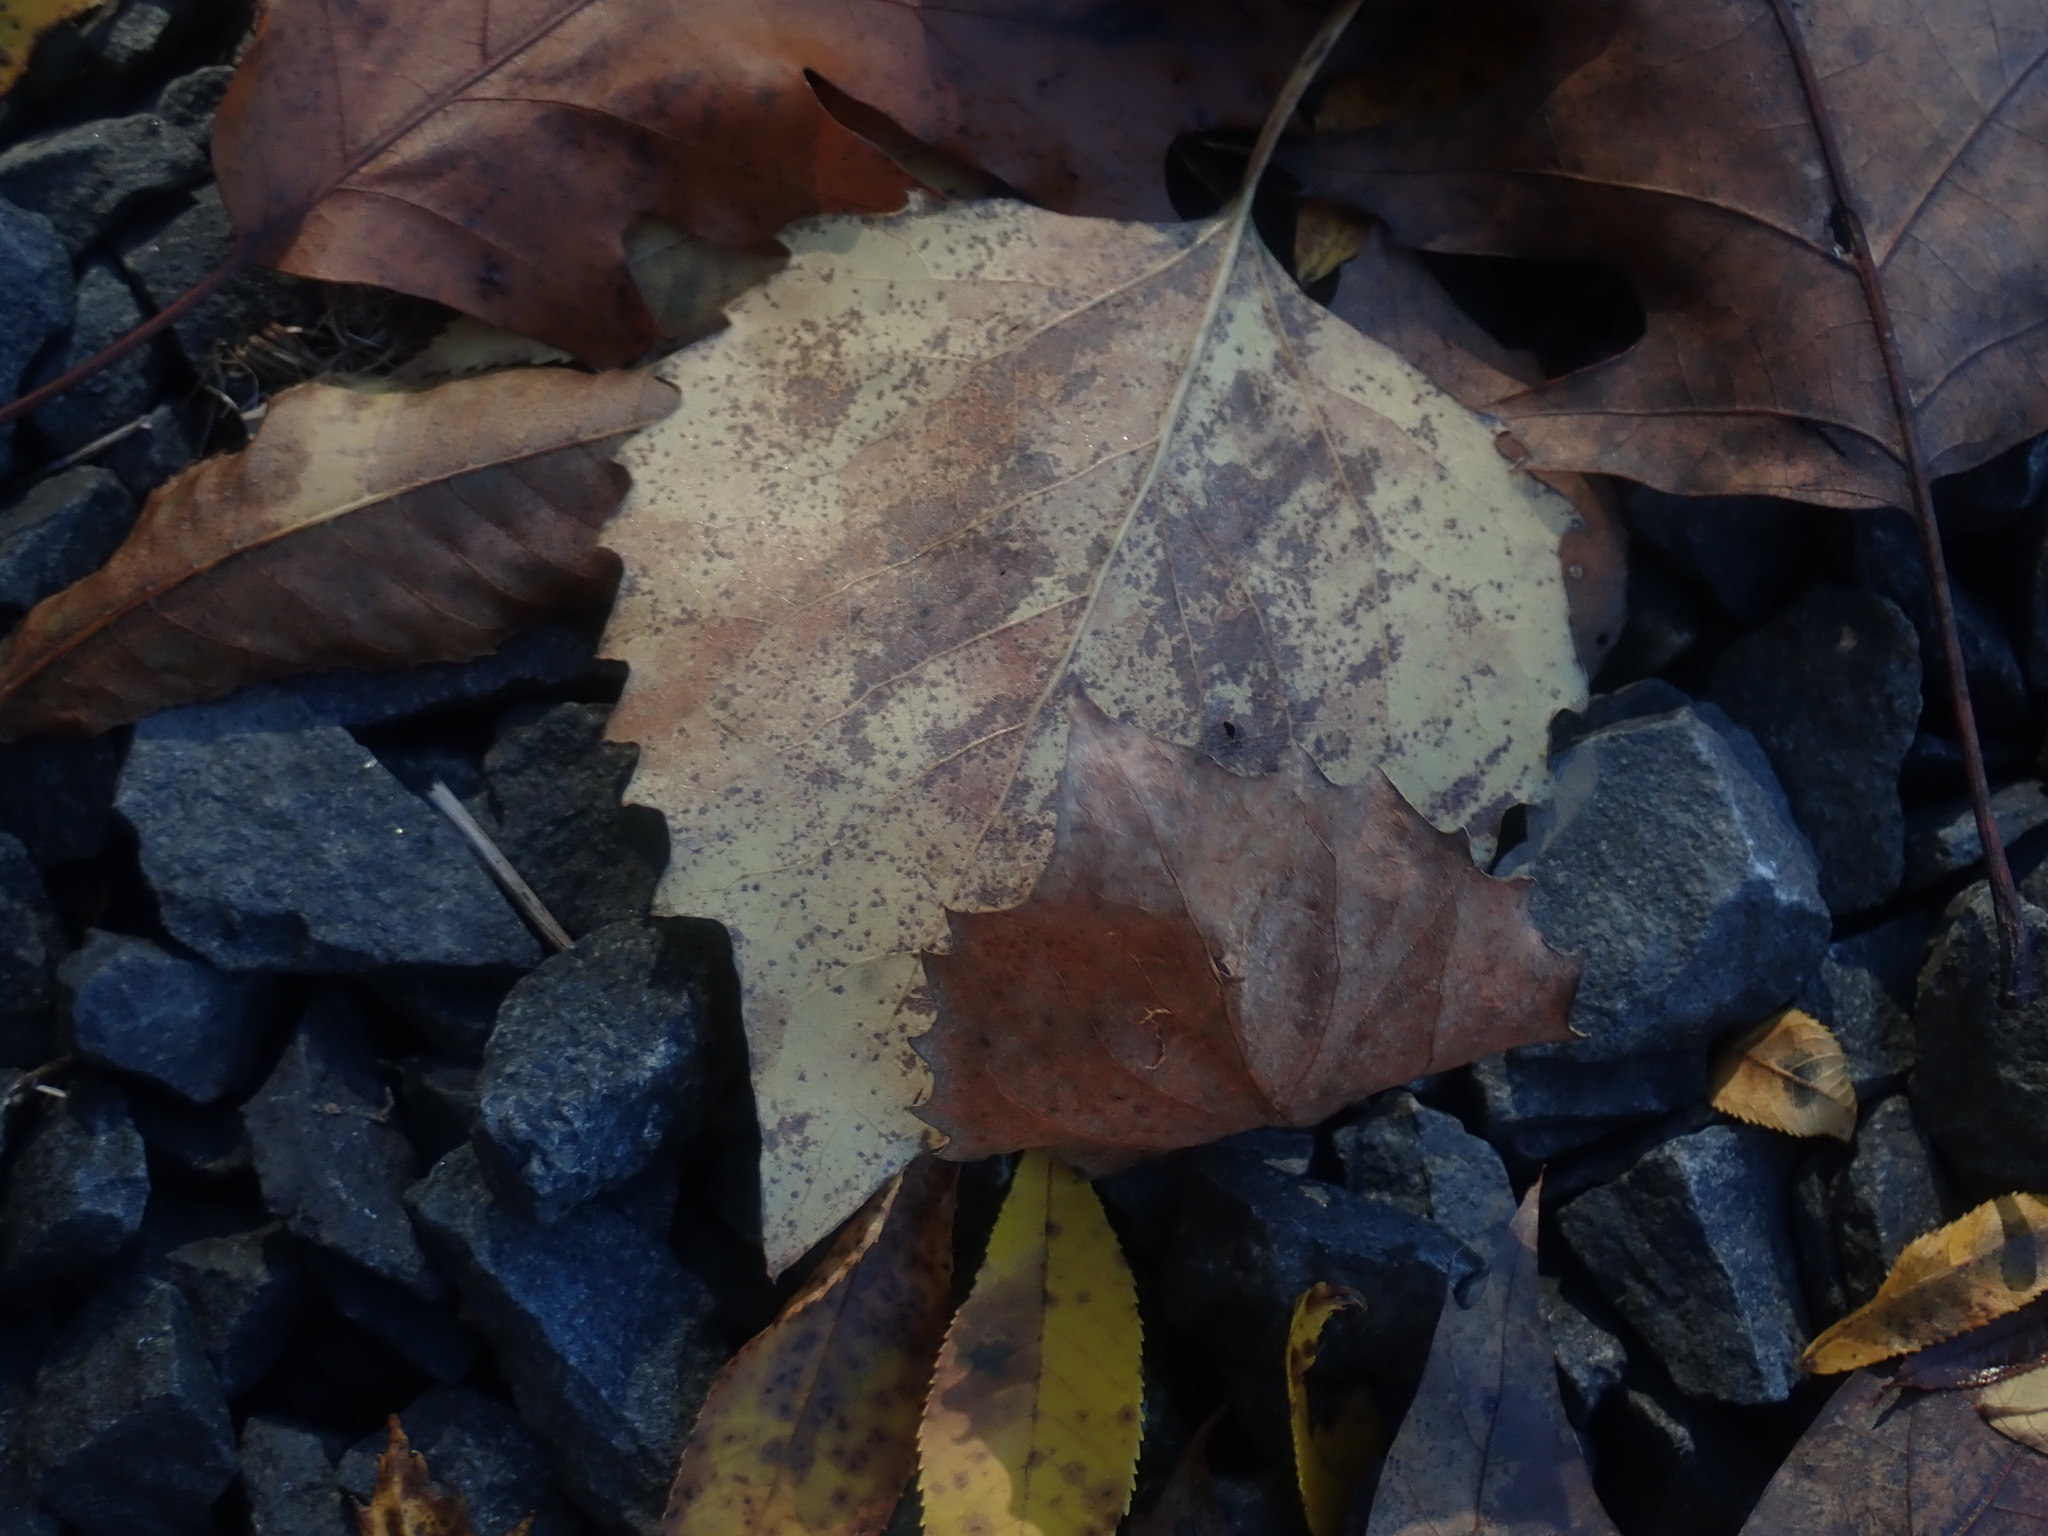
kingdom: Plantae
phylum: Tracheophyta
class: Magnoliopsida
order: Malpighiales
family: Salicaceae
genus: Populus
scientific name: Populus grandidentata
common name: Bigtooth aspen
